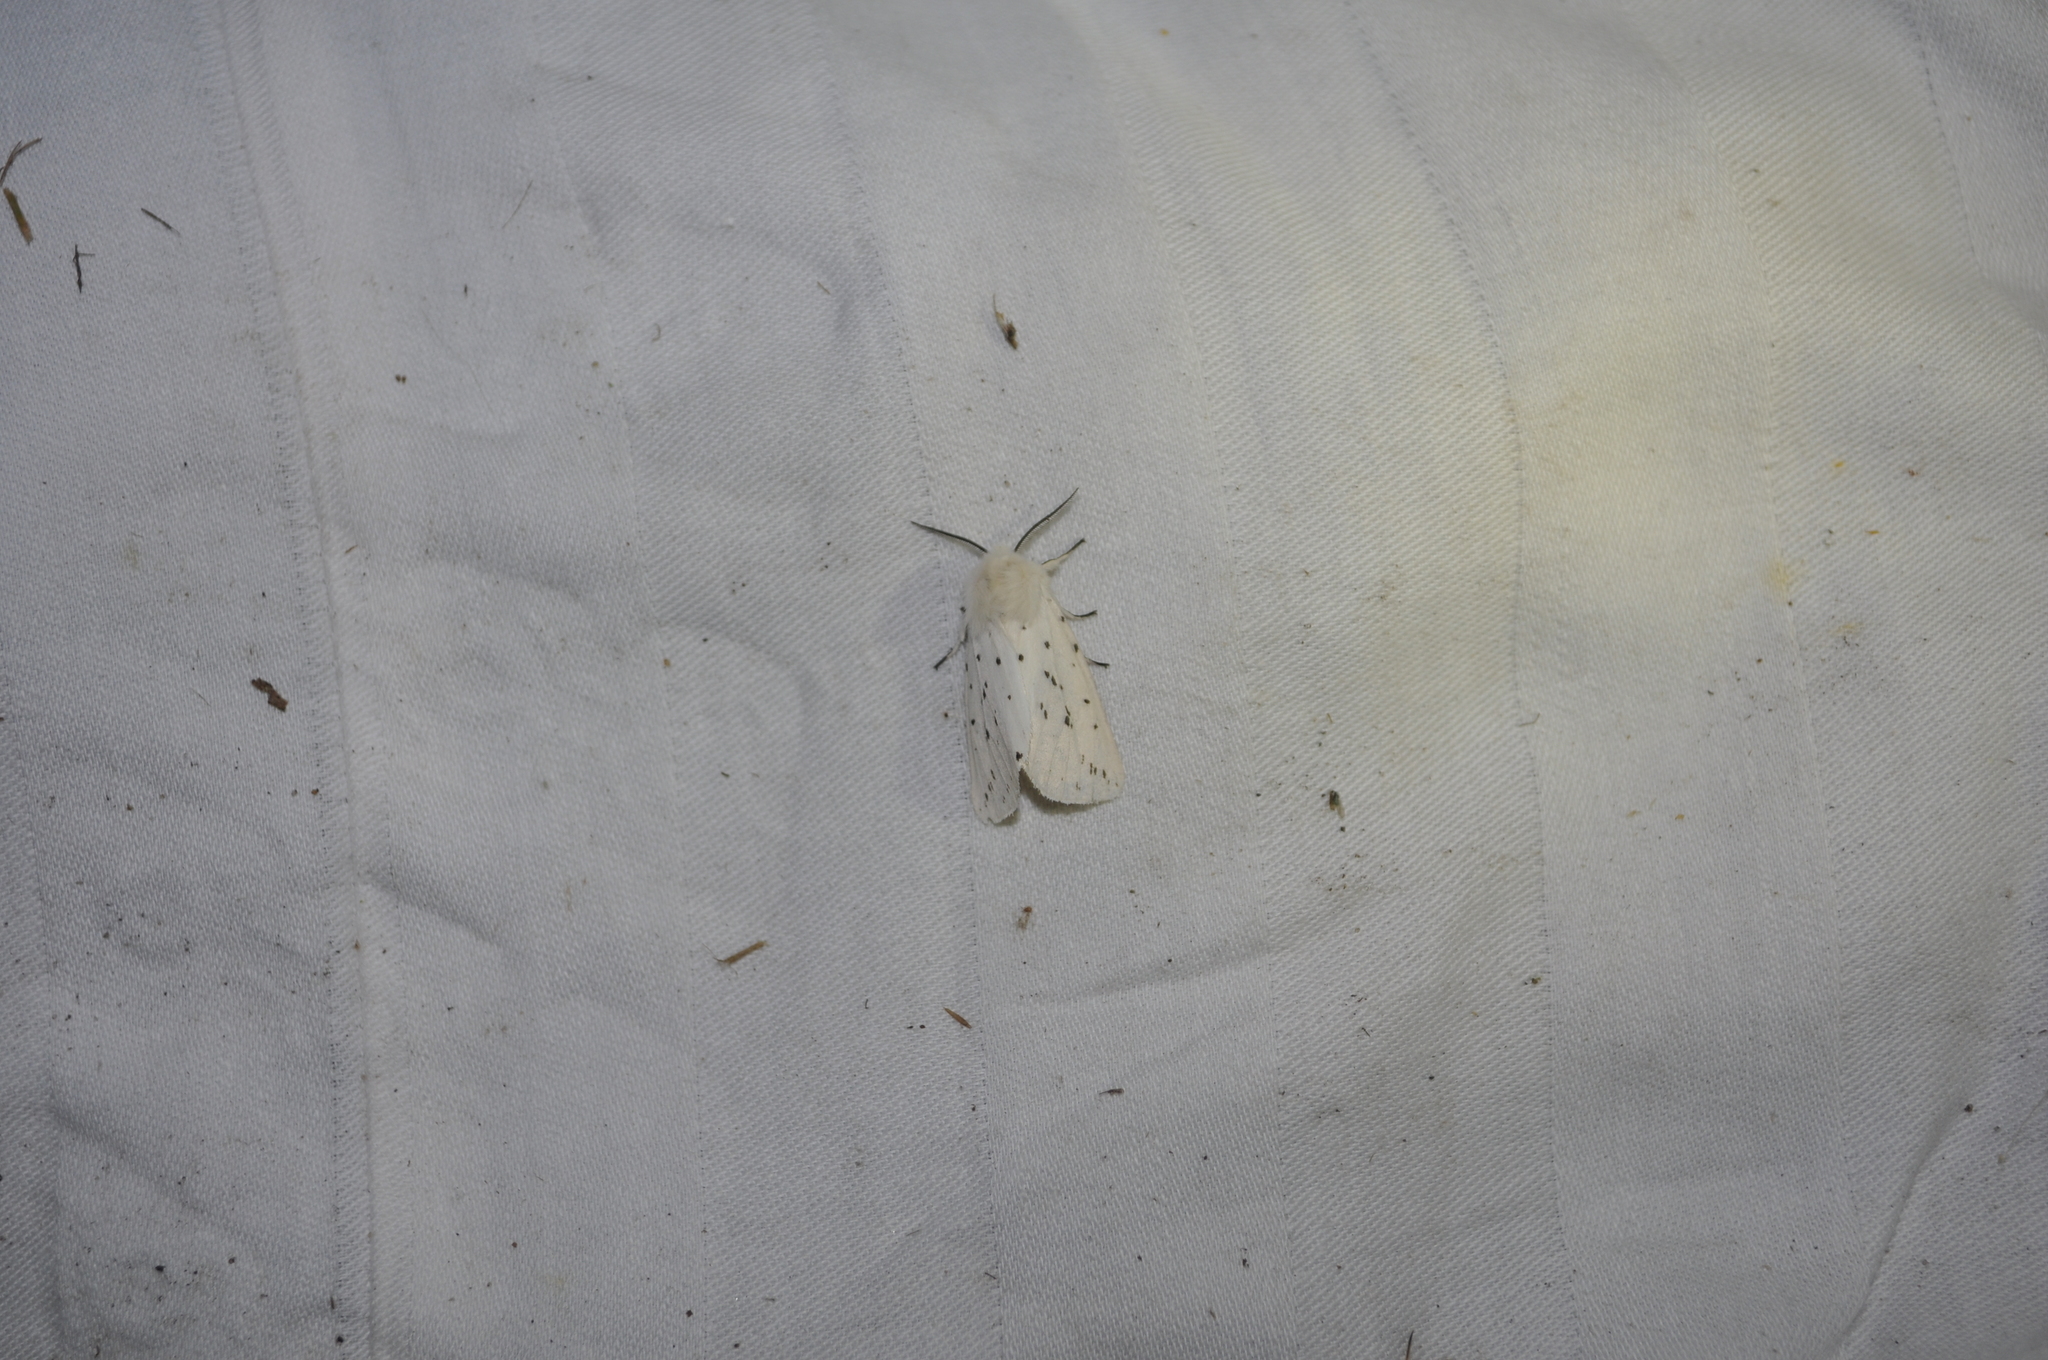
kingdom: Animalia
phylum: Arthropoda
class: Insecta
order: Lepidoptera
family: Erebidae
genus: Spilosoma
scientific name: Spilosoma lubricipeda
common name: White ermine
